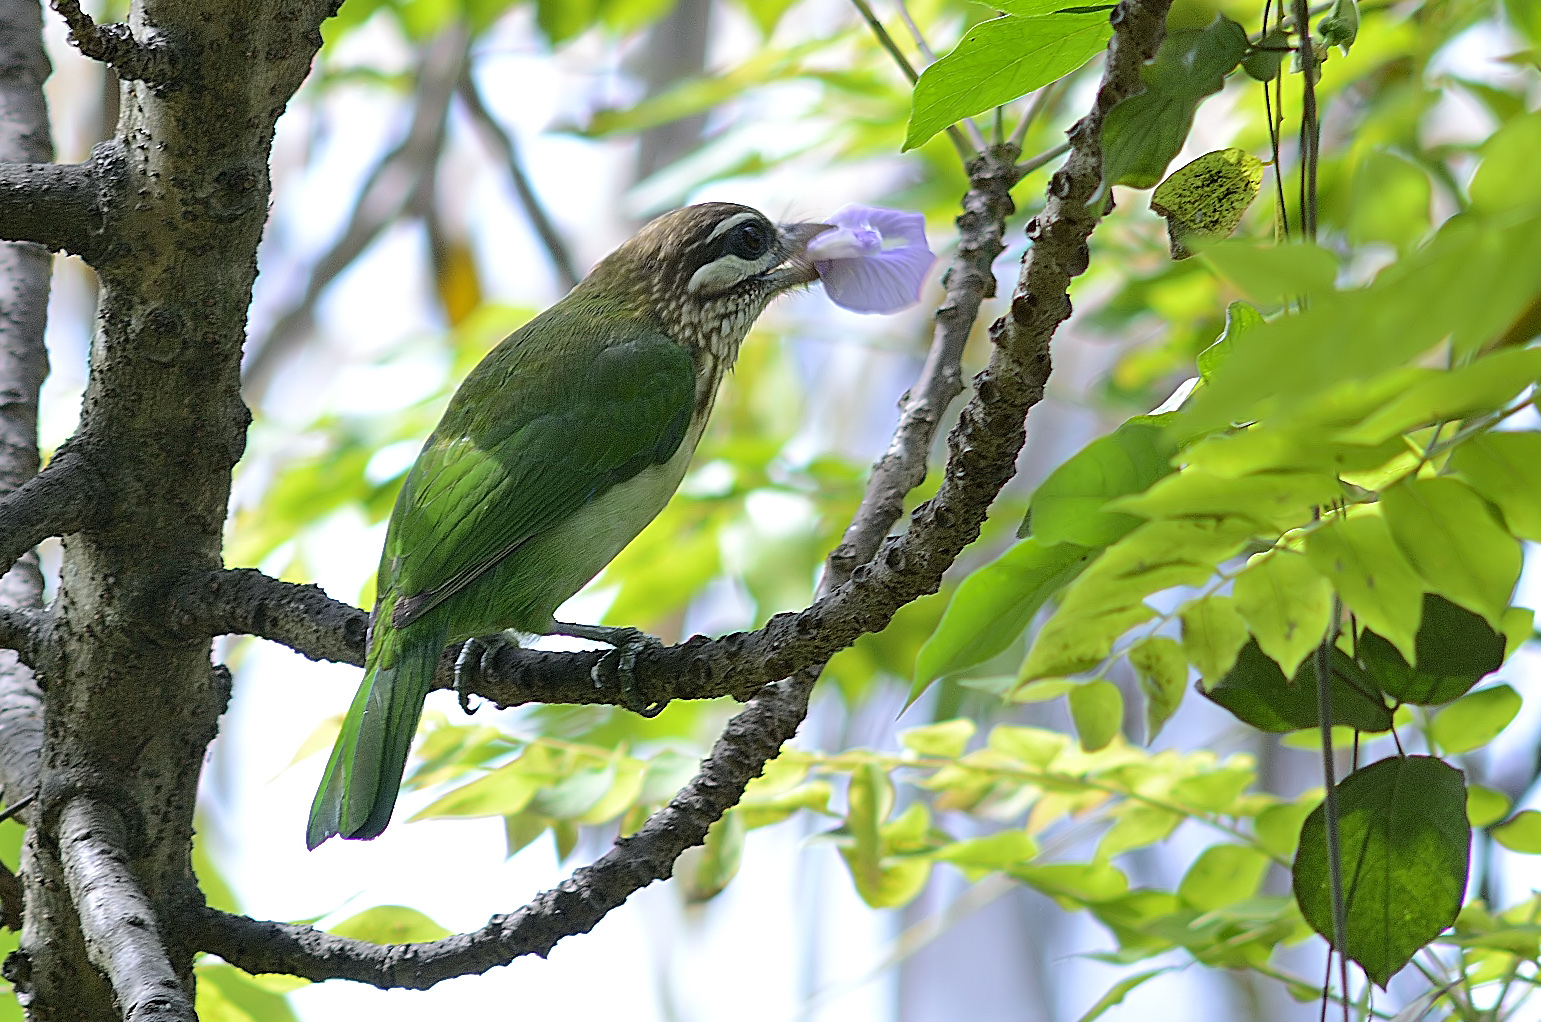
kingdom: Animalia
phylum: Chordata
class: Aves
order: Piciformes
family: Megalaimidae
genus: Psilopogon
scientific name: Psilopogon viridis
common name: White-cheeked barbet
